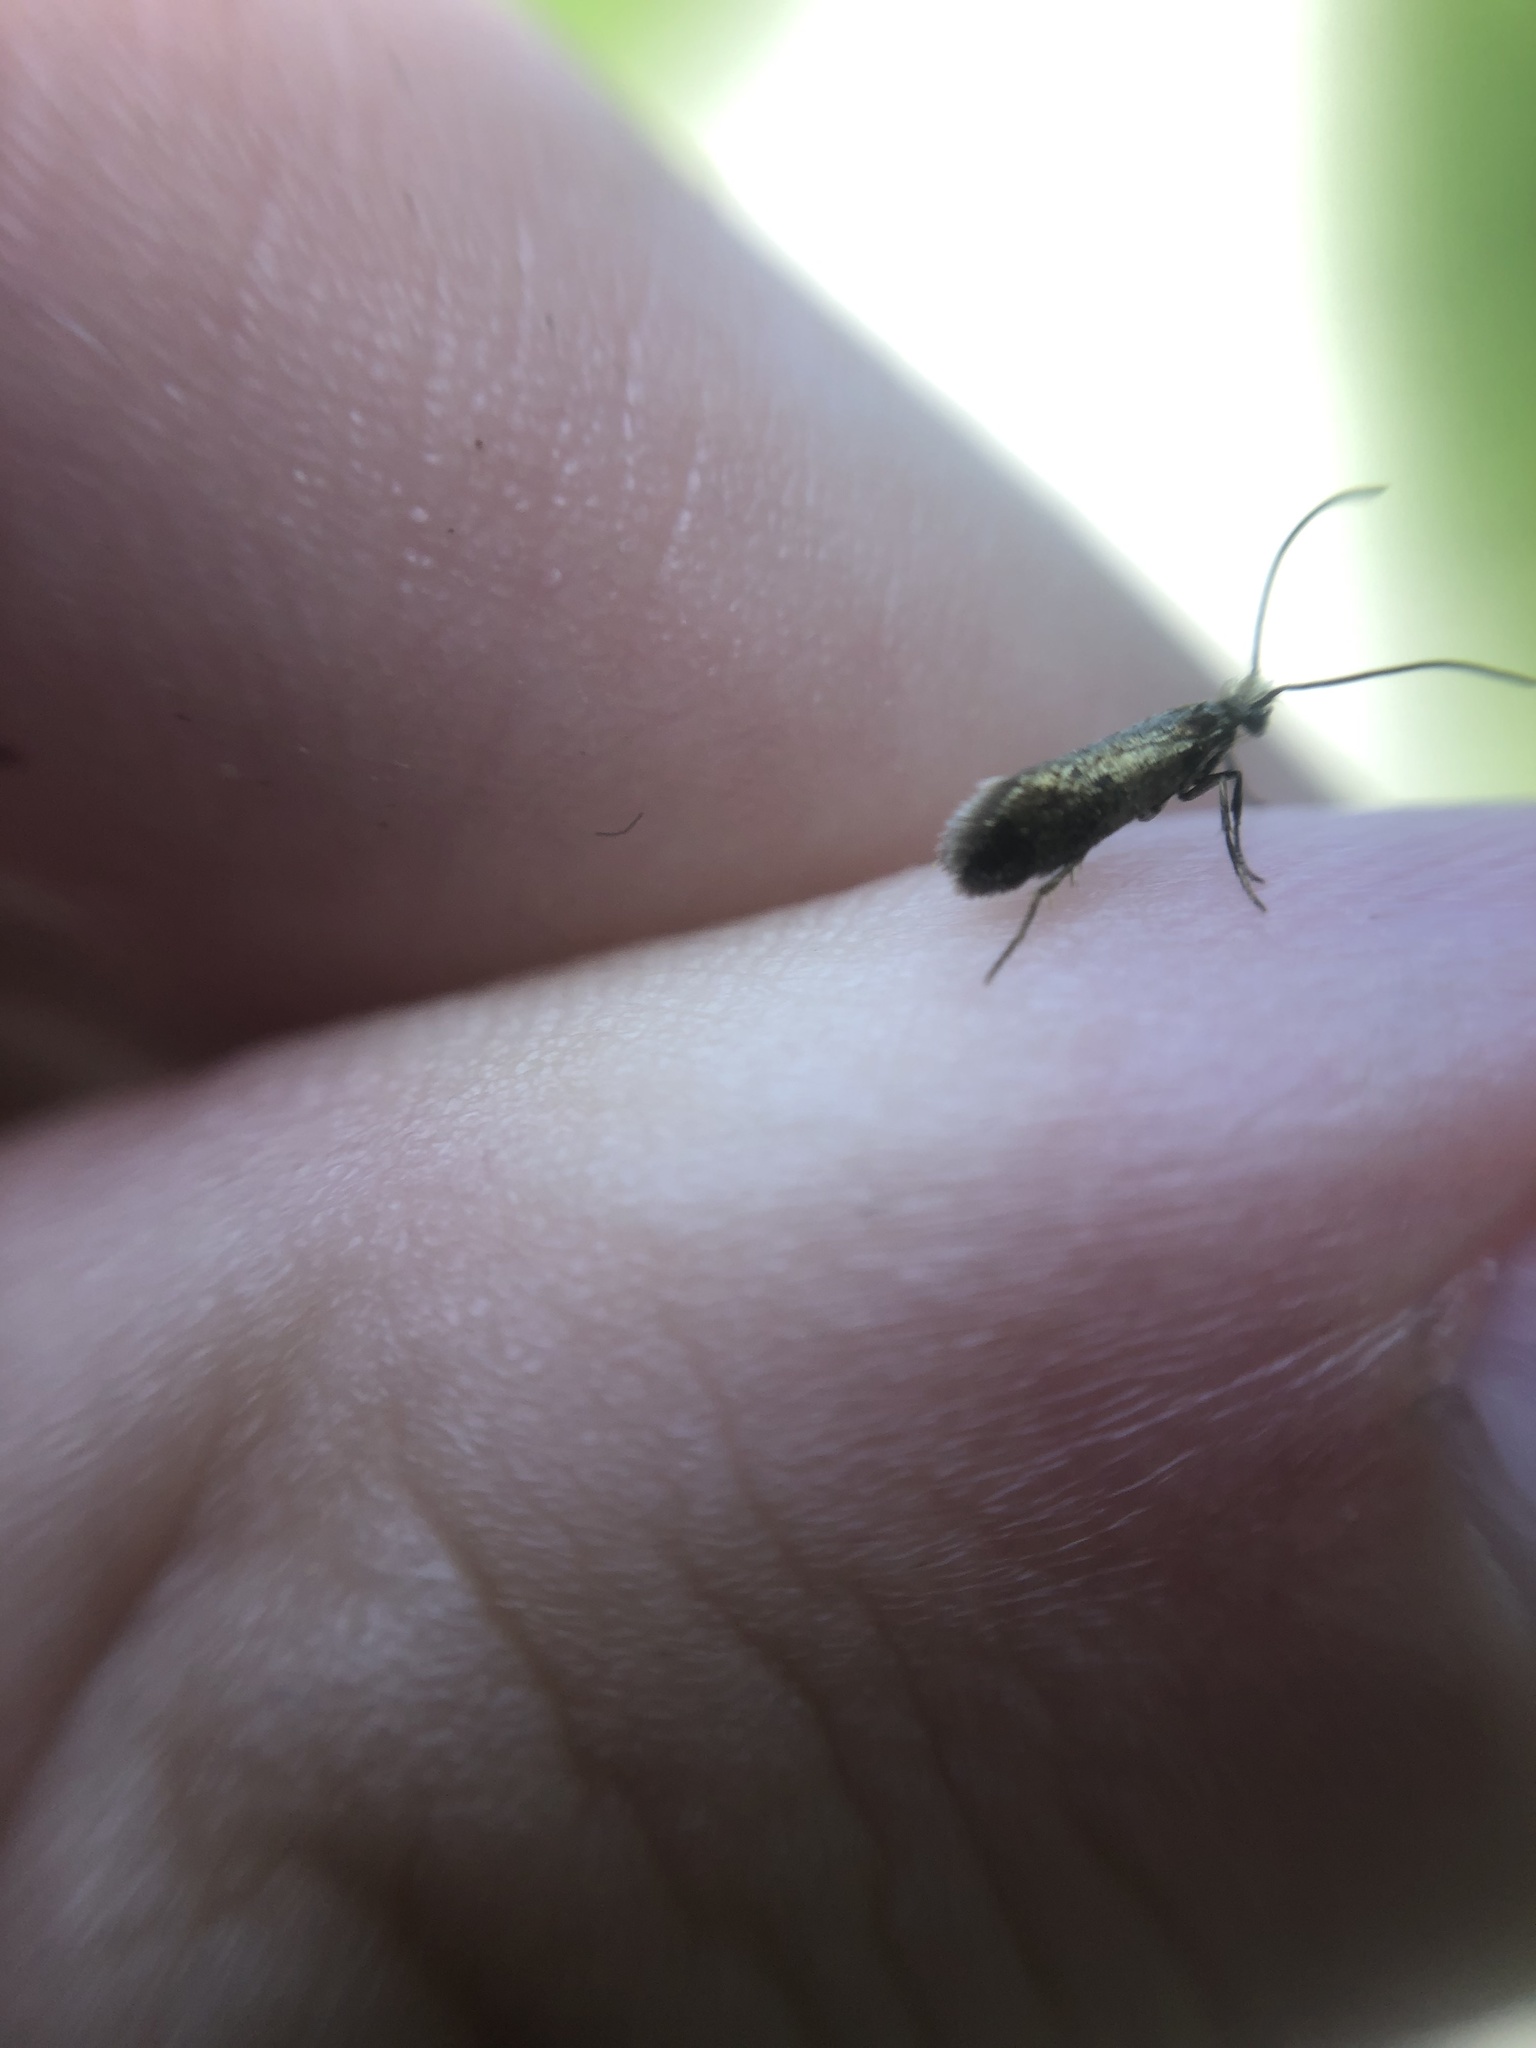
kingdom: Animalia
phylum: Arthropoda
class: Insecta
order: Lepidoptera
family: Micropterigidae
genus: Micropterix
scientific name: Micropterix calthella
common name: Plain gold
